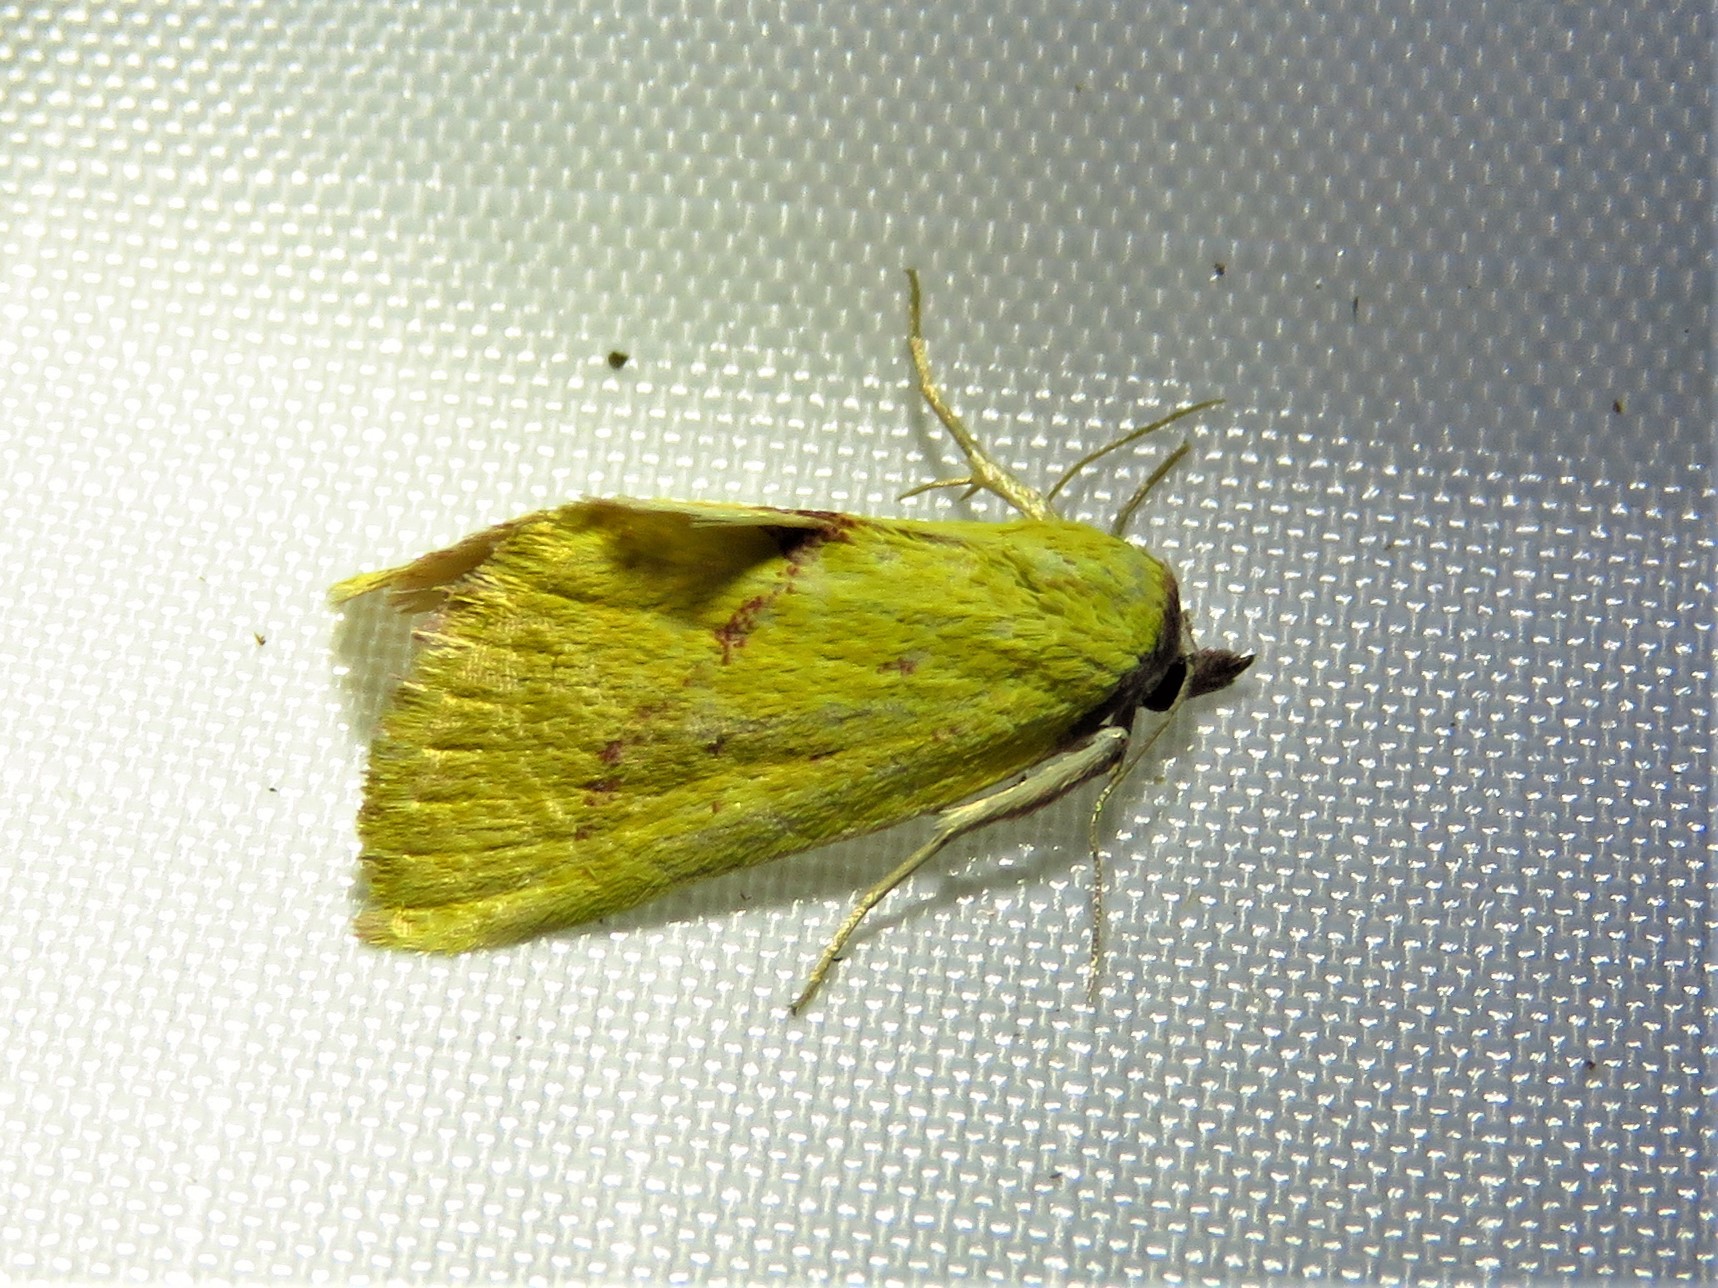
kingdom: Animalia
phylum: Arthropoda
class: Insecta
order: Lepidoptera
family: Erebidae
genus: Phytometra
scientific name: Phytometra orgiae
